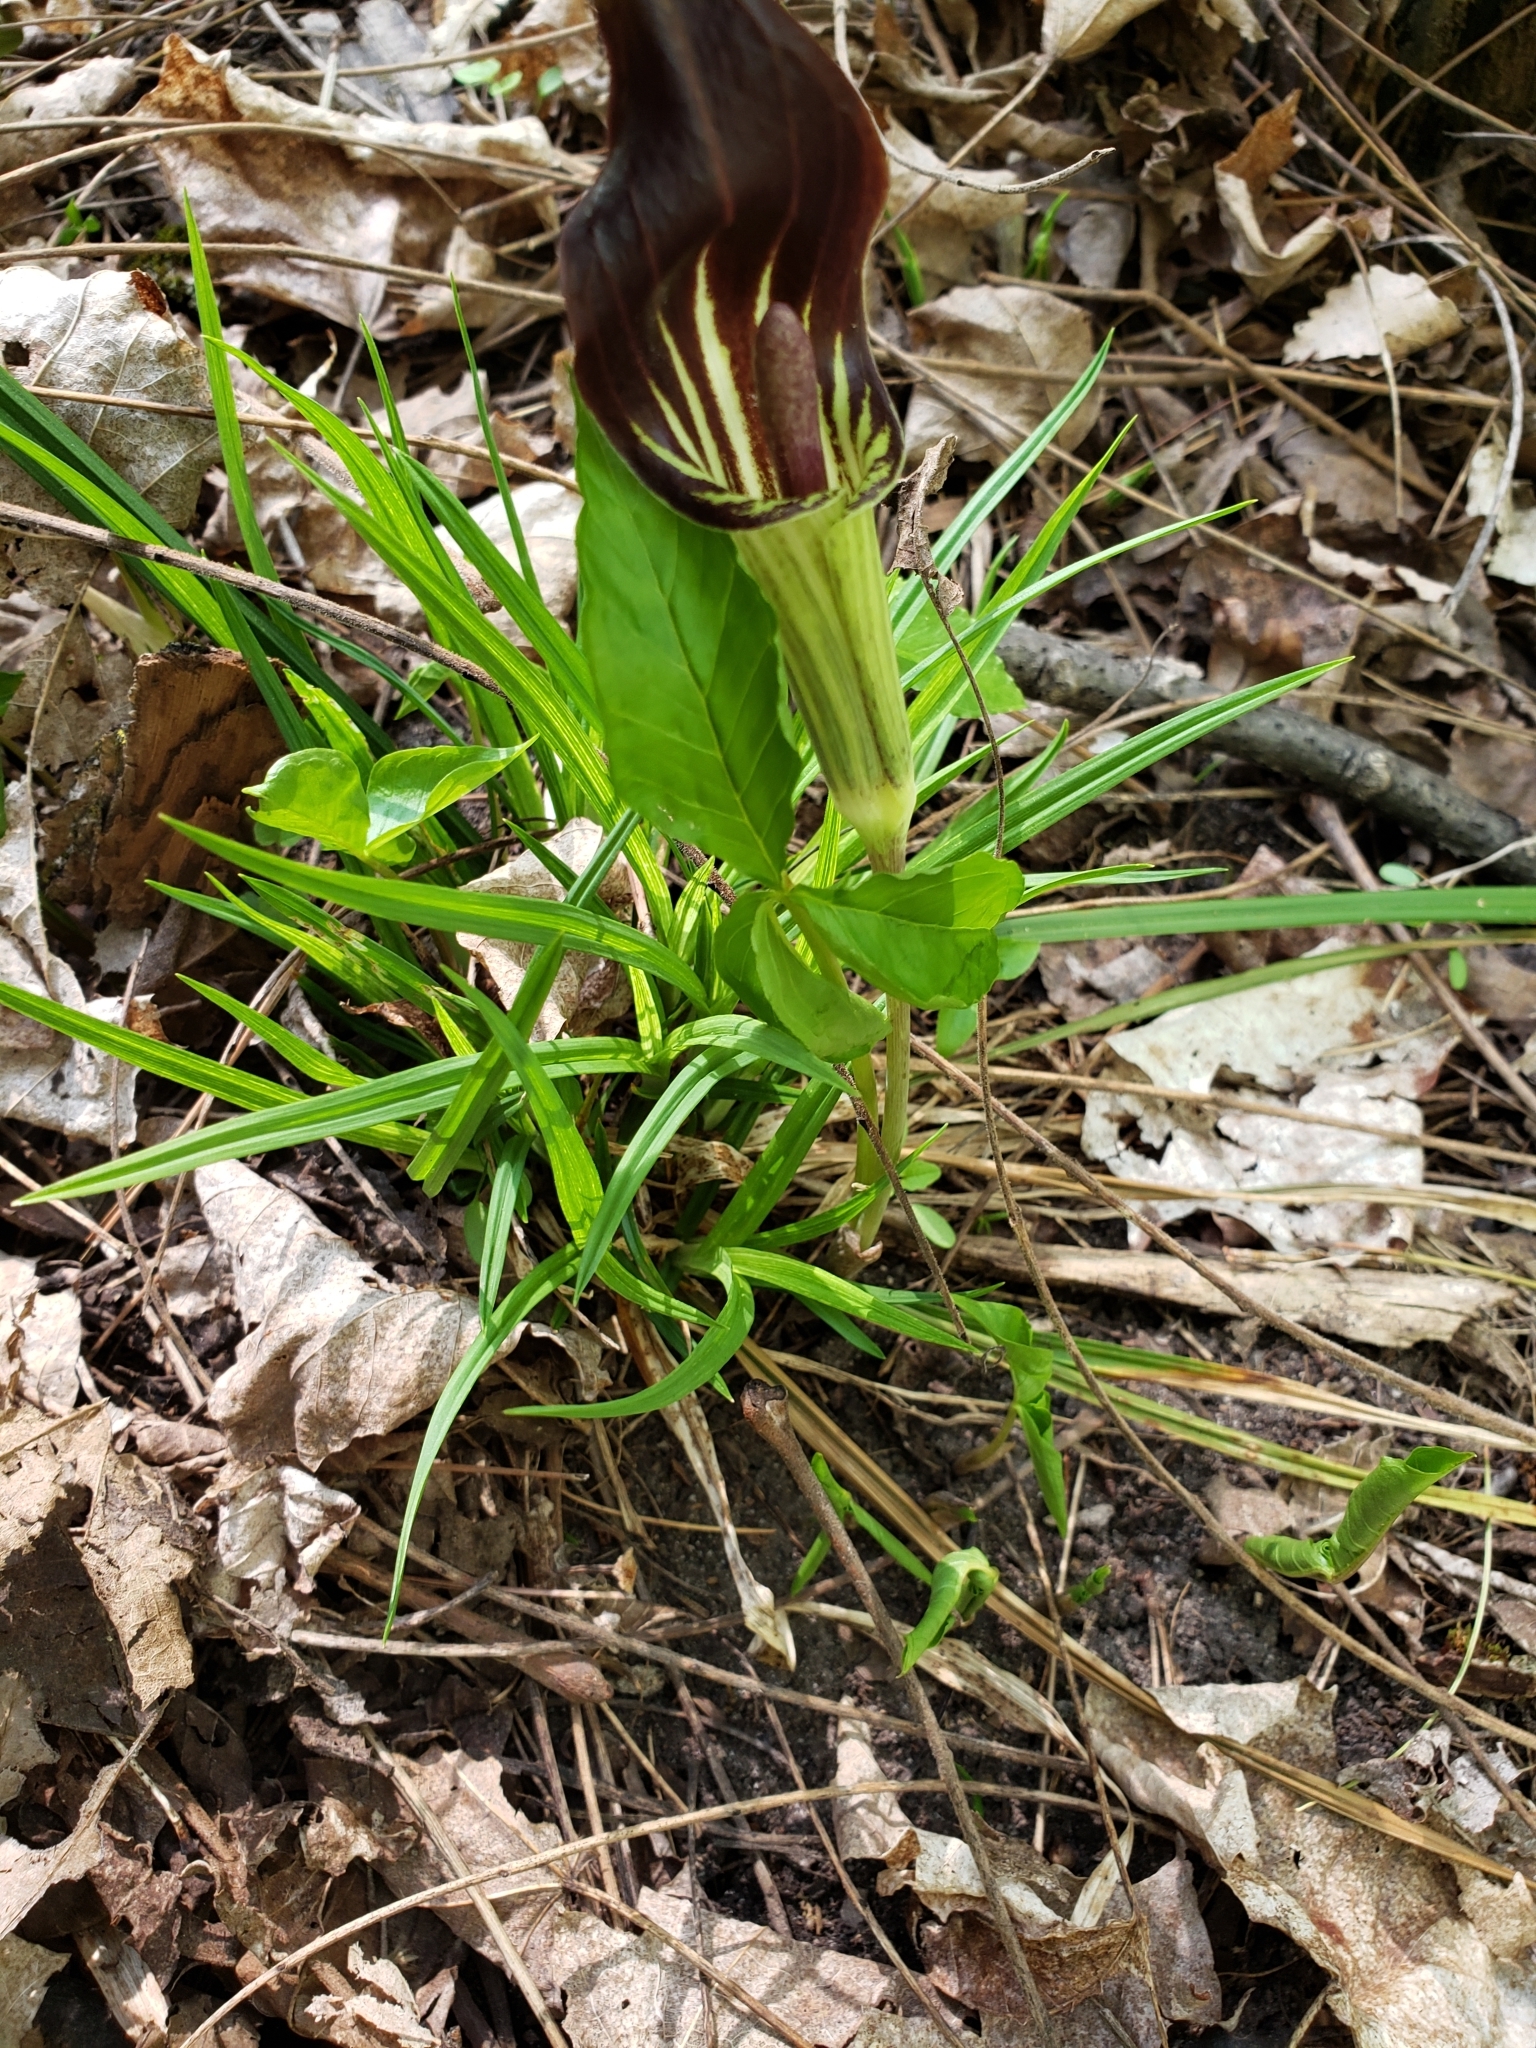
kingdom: Plantae
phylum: Tracheophyta
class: Liliopsida
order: Alismatales
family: Araceae
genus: Arisaema
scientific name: Arisaema triphyllum
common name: Jack-in-the-pulpit
